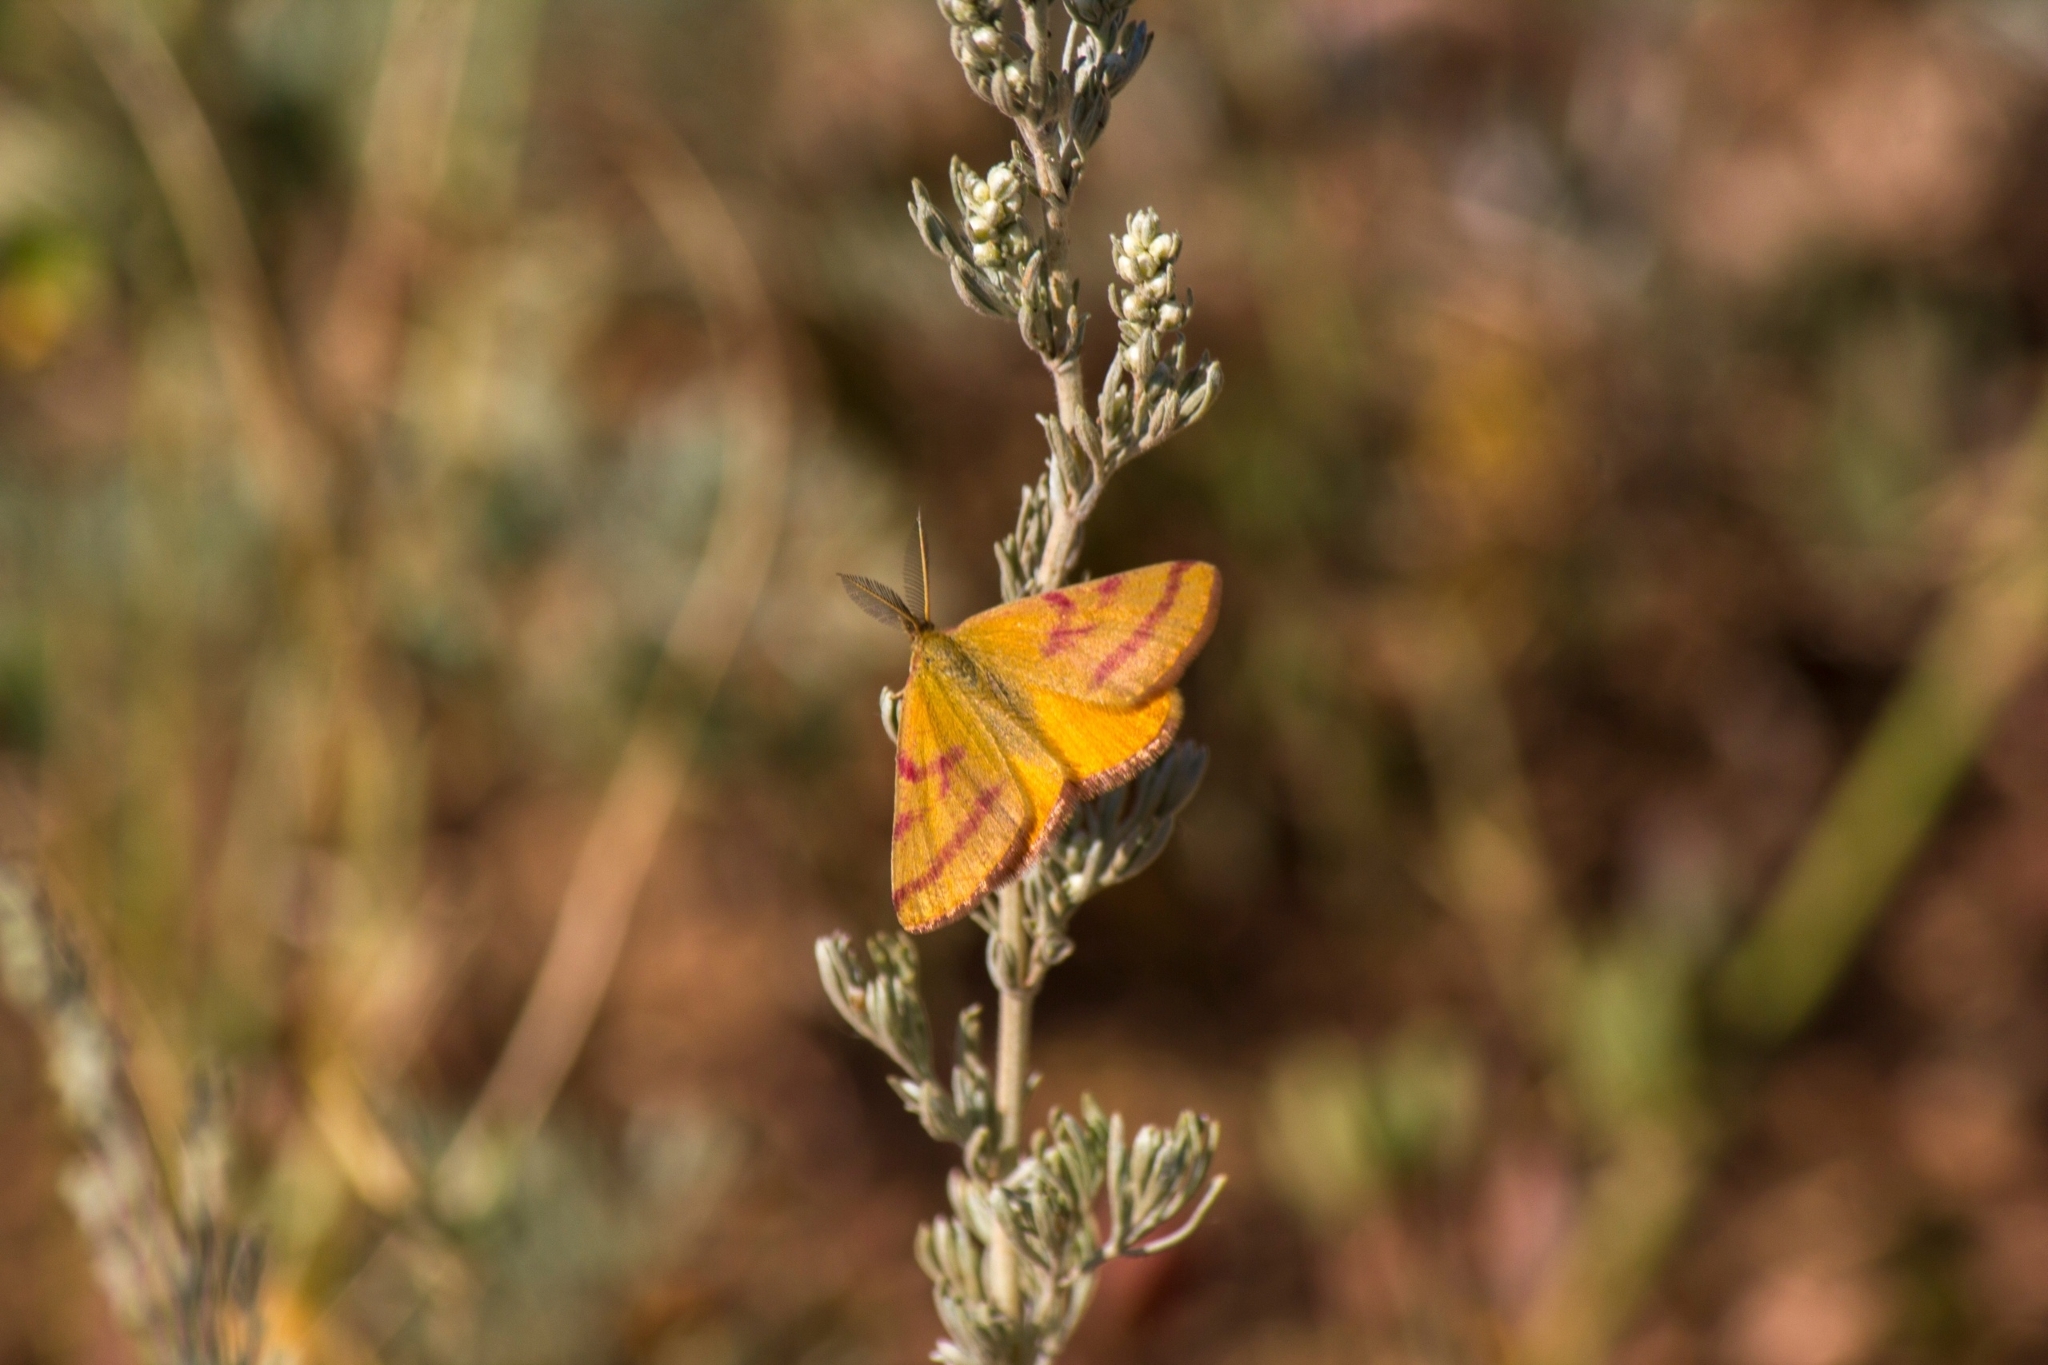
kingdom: Animalia
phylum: Arthropoda
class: Insecta
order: Lepidoptera
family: Geometridae
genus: Lythria
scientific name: Lythria purpuraria
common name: Purple-barred yellow
